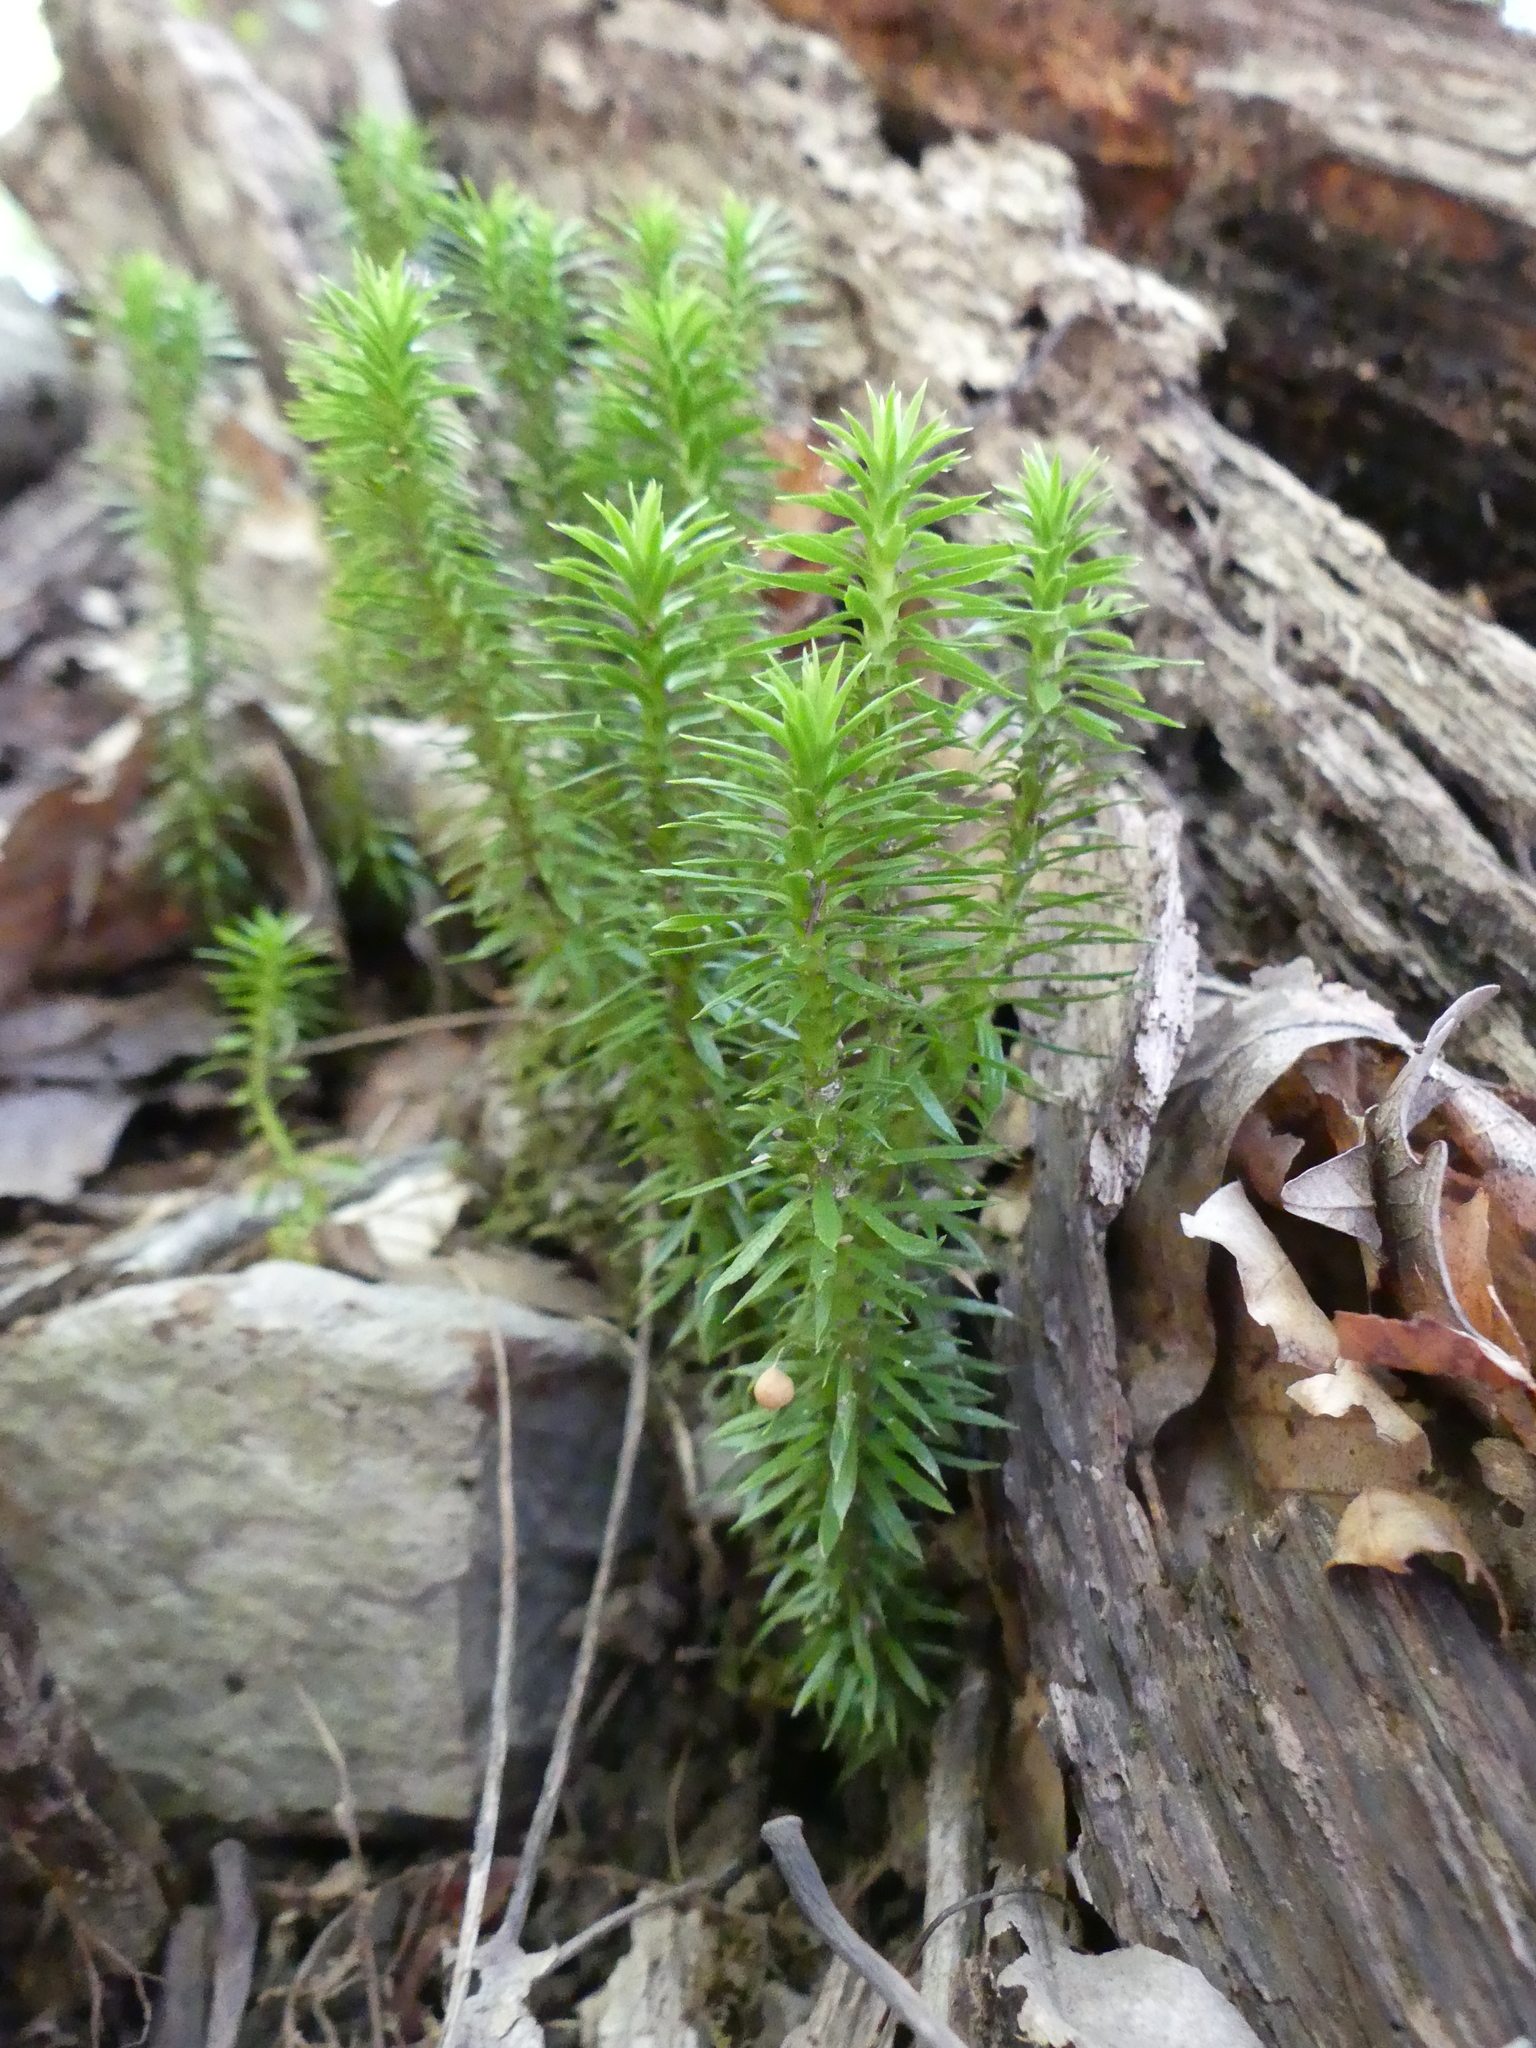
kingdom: Plantae
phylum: Tracheophyta
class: Lycopodiopsida
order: Lycopodiales
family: Lycopodiaceae
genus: Huperzia
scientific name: Huperzia lucidula
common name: Shining clubmoss
